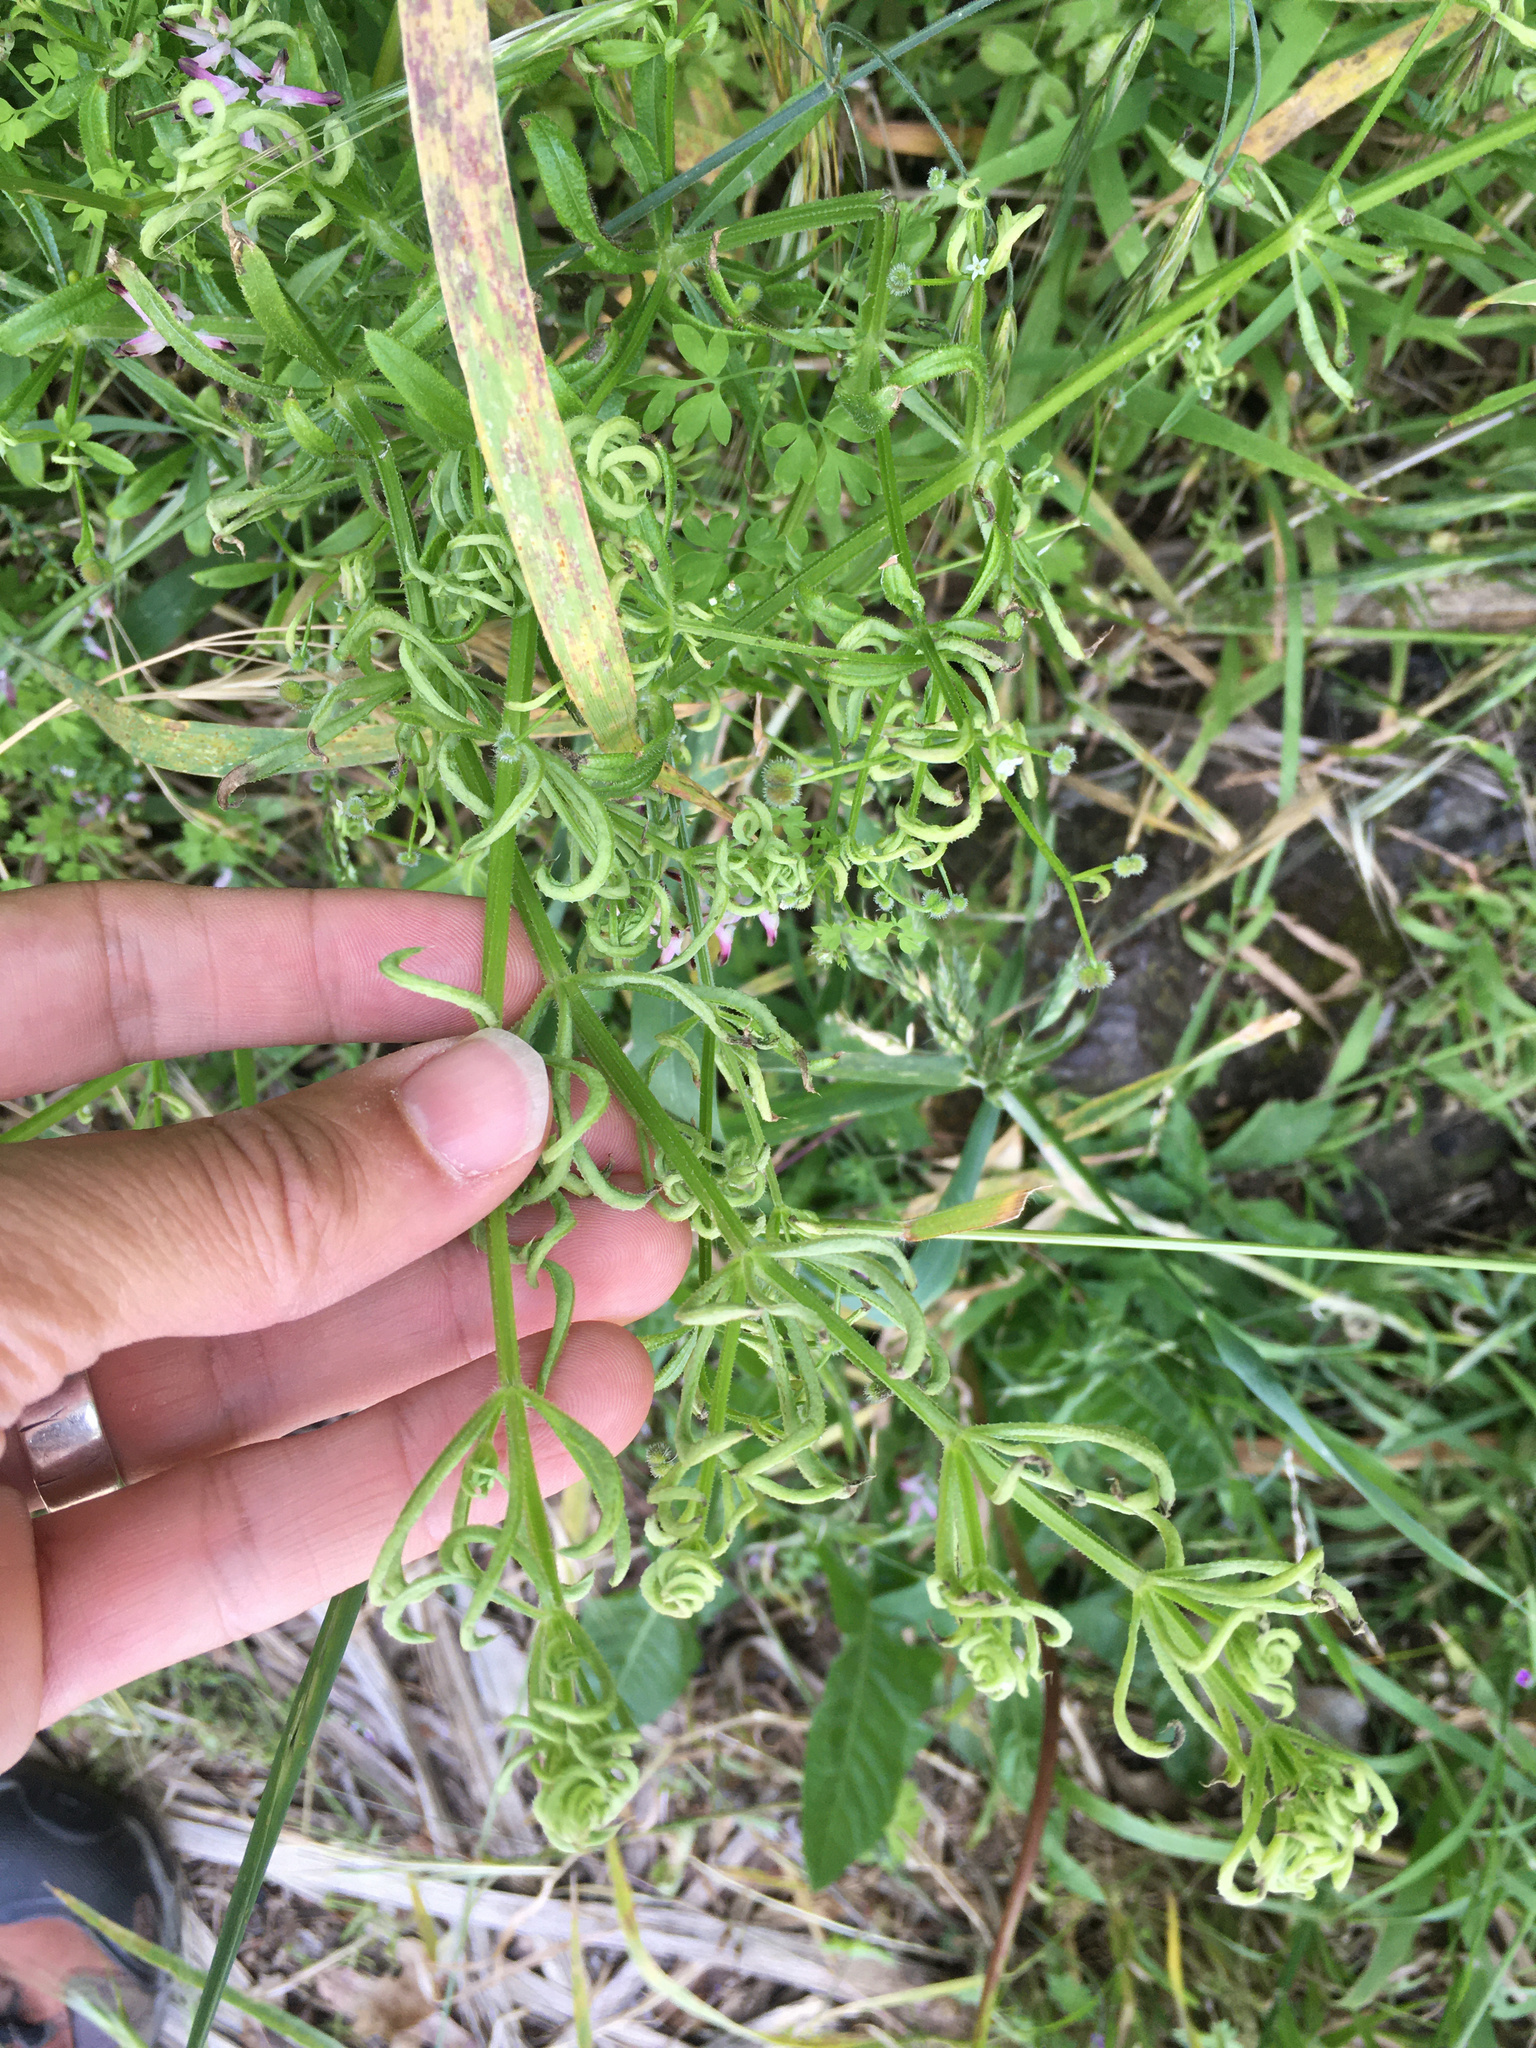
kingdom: Animalia
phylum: Arthropoda
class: Arachnida
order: Trombidiformes
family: Eriophyidae
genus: Cecidophyes
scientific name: Cecidophyes rouhollahi
